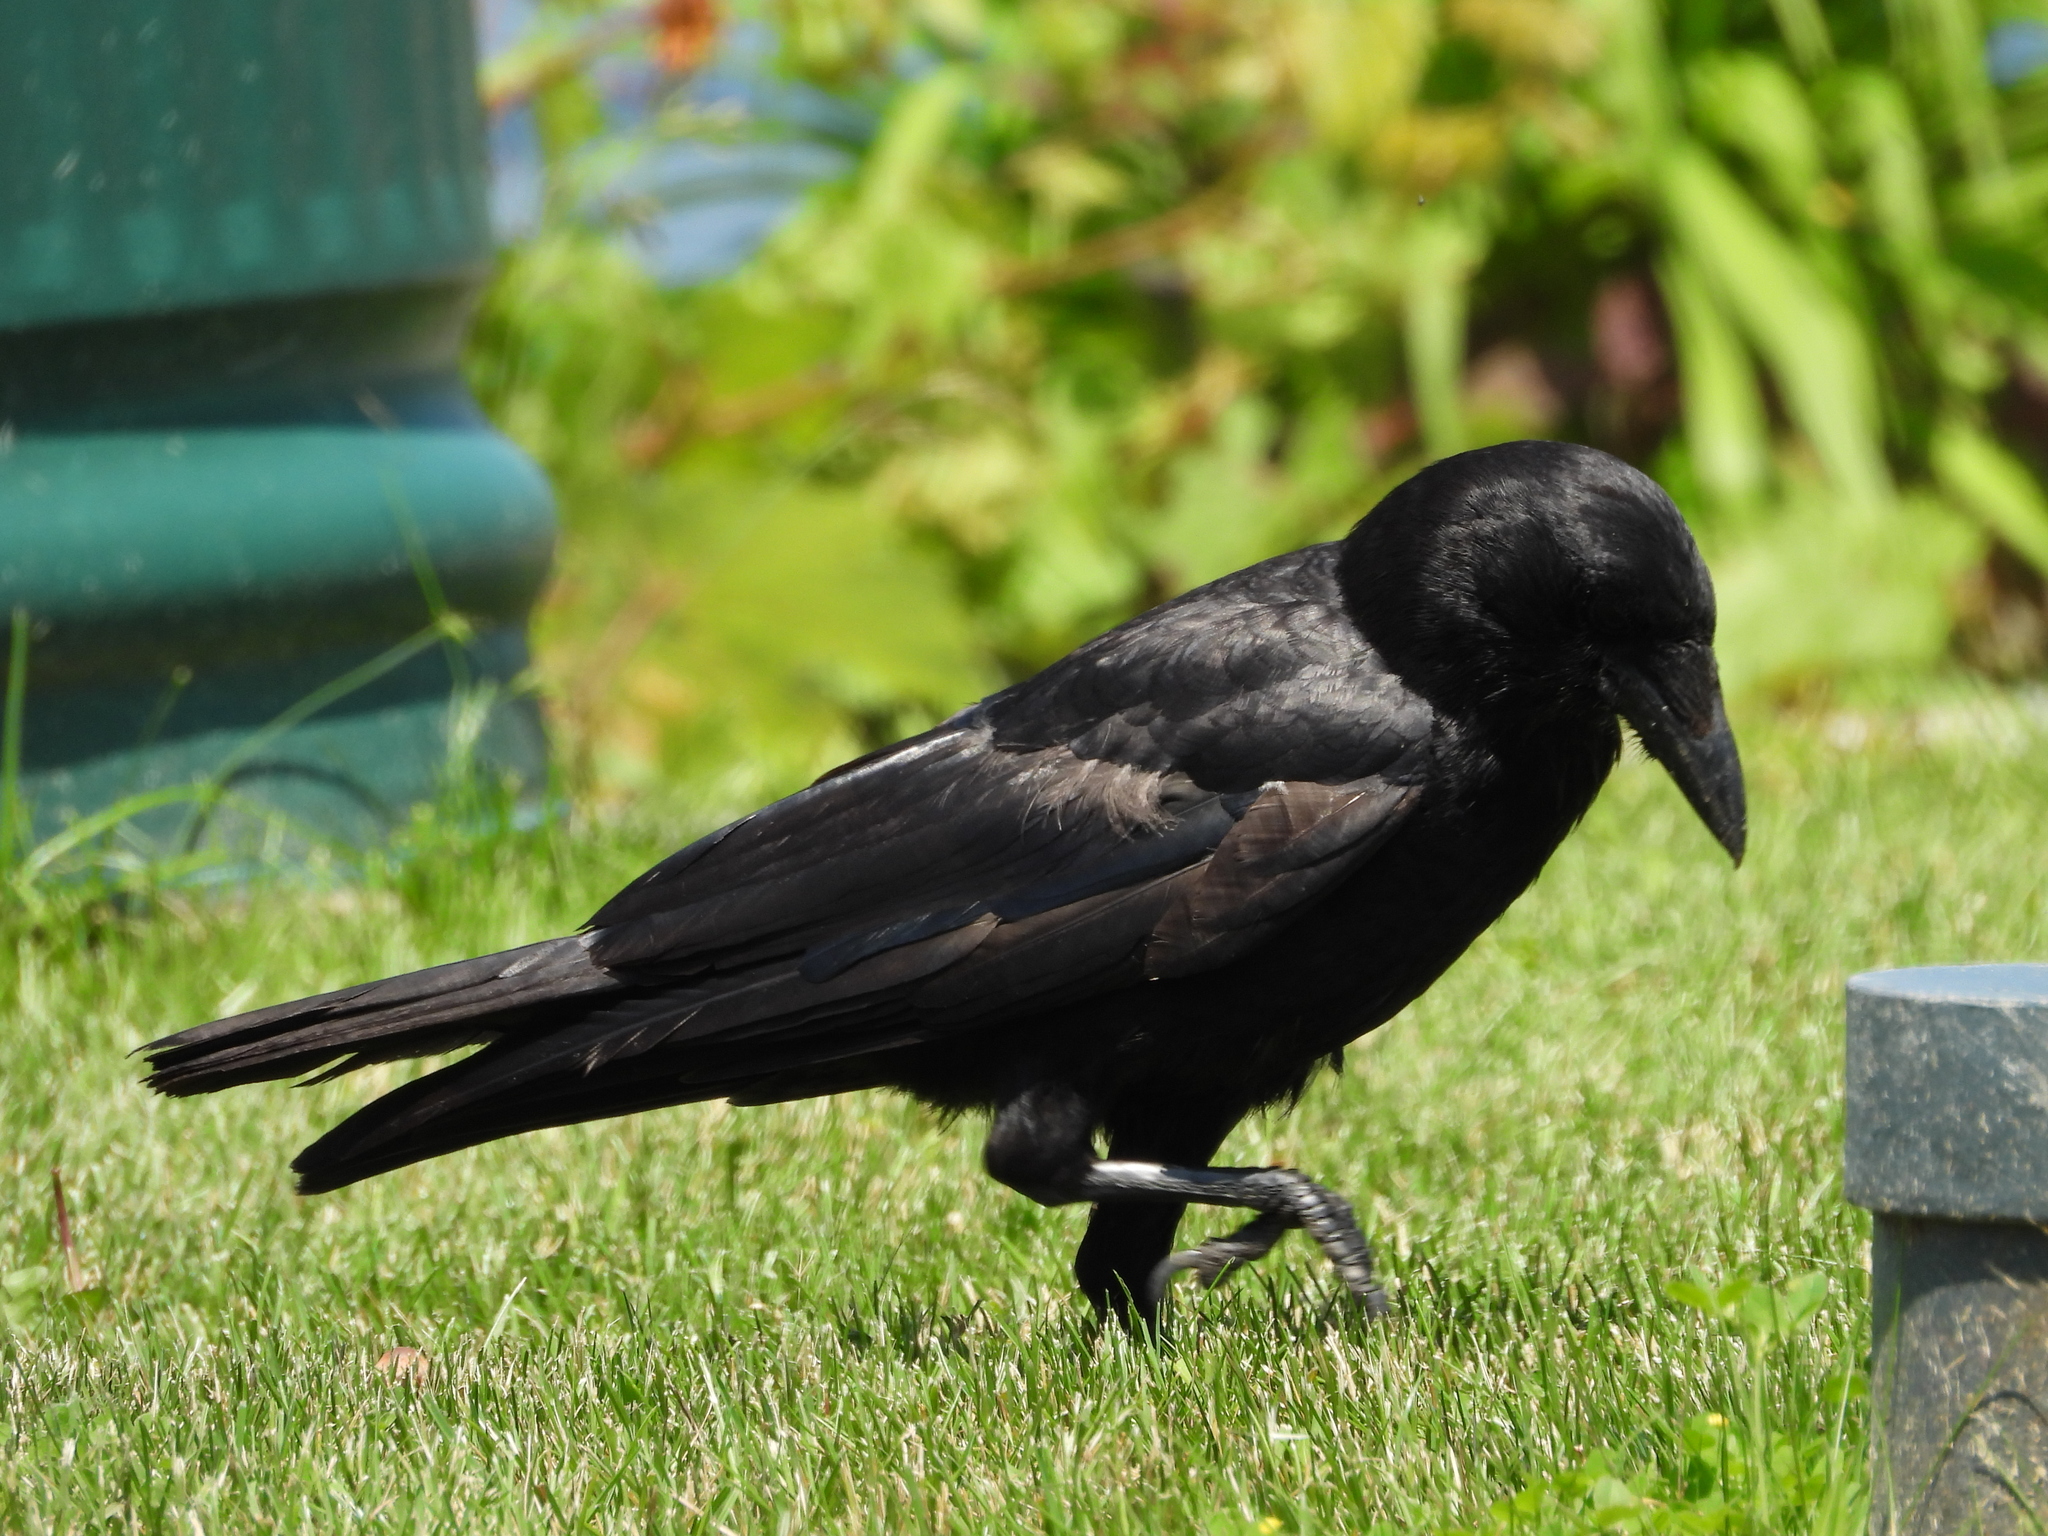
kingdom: Animalia
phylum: Chordata
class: Aves
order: Passeriformes
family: Corvidae
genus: Corvus
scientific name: Corvus brachyrhynchos
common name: American crow
